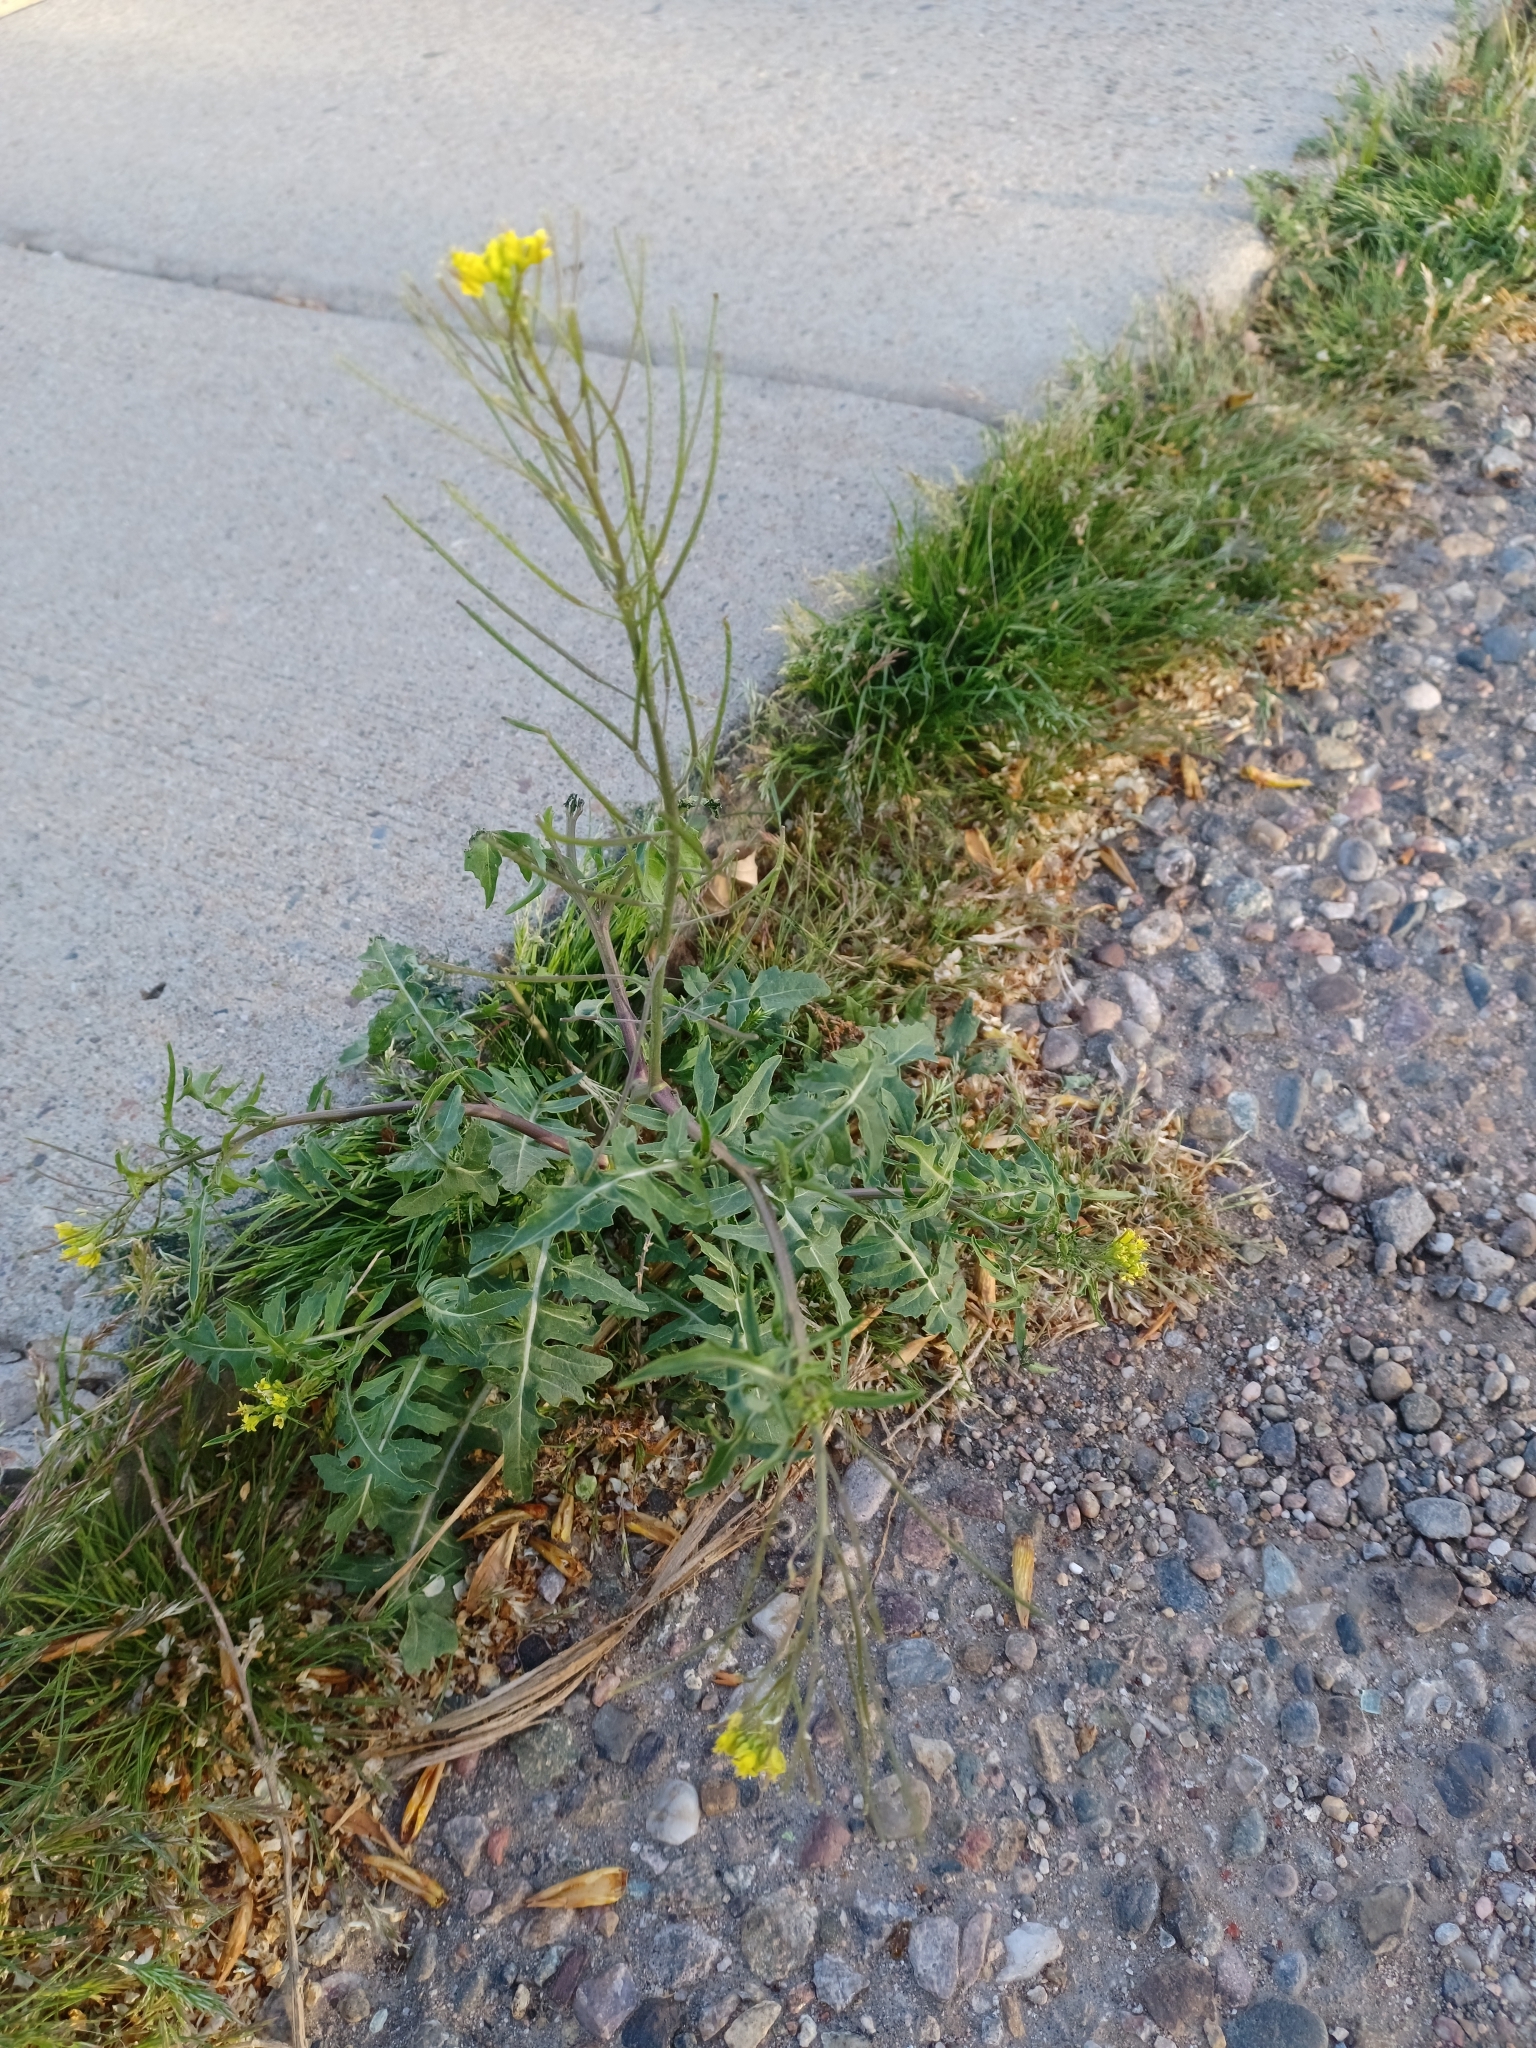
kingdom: Plantae
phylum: Tracheophyta
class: Magnoliopsida
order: Brassicales
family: Brassicaceae
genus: Sisymbrium
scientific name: Sisymbrium irio
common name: London rocket
